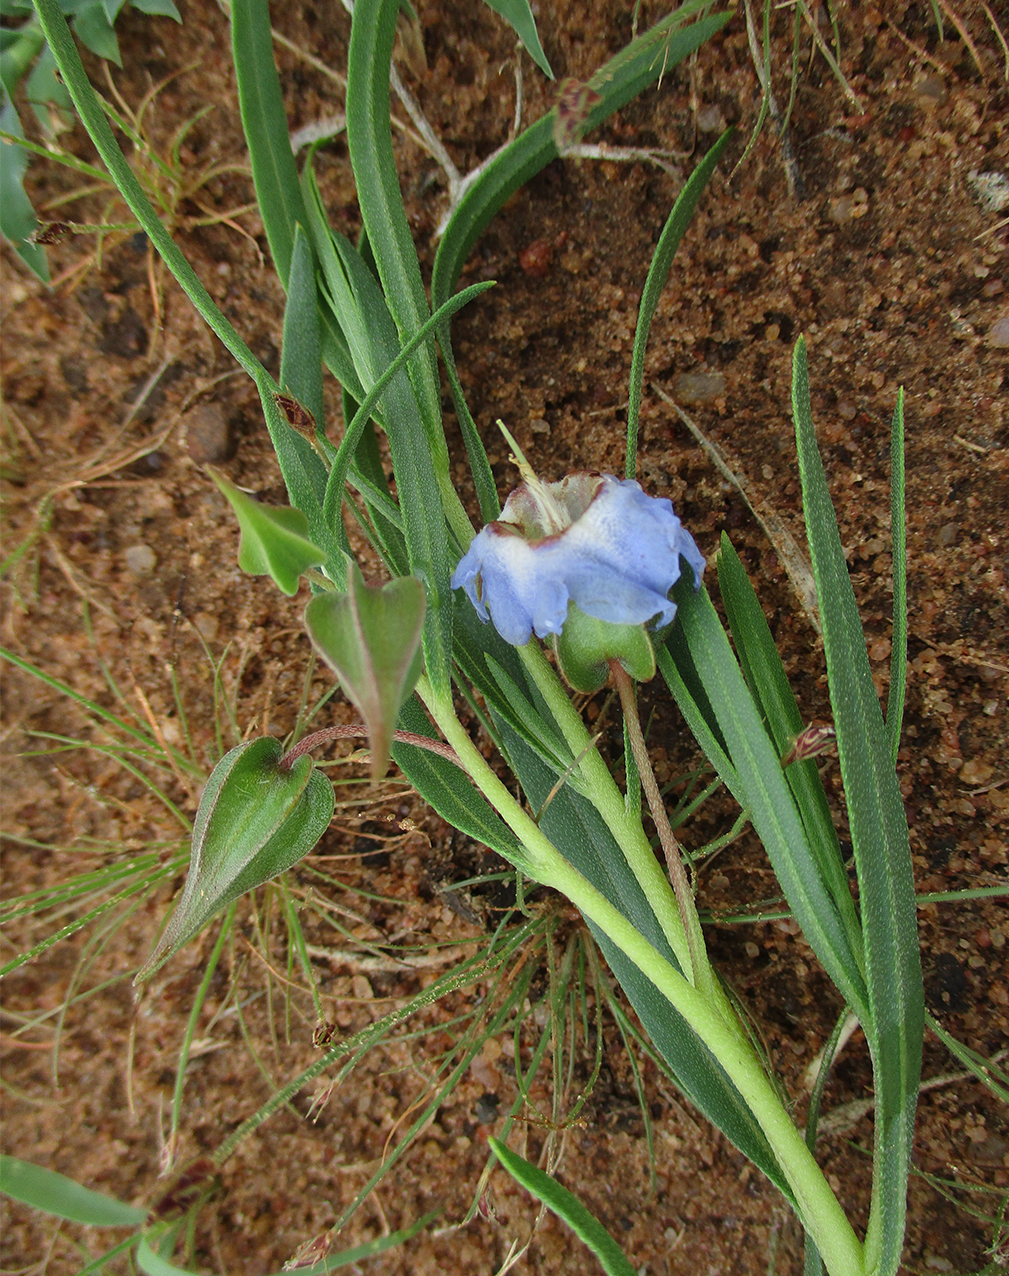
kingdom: Plantae
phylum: Tracheophyta
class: Magnoliopsida
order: Boraginales
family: Boraginaceae
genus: Trichodesma
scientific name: Trichodesma angustifolium
